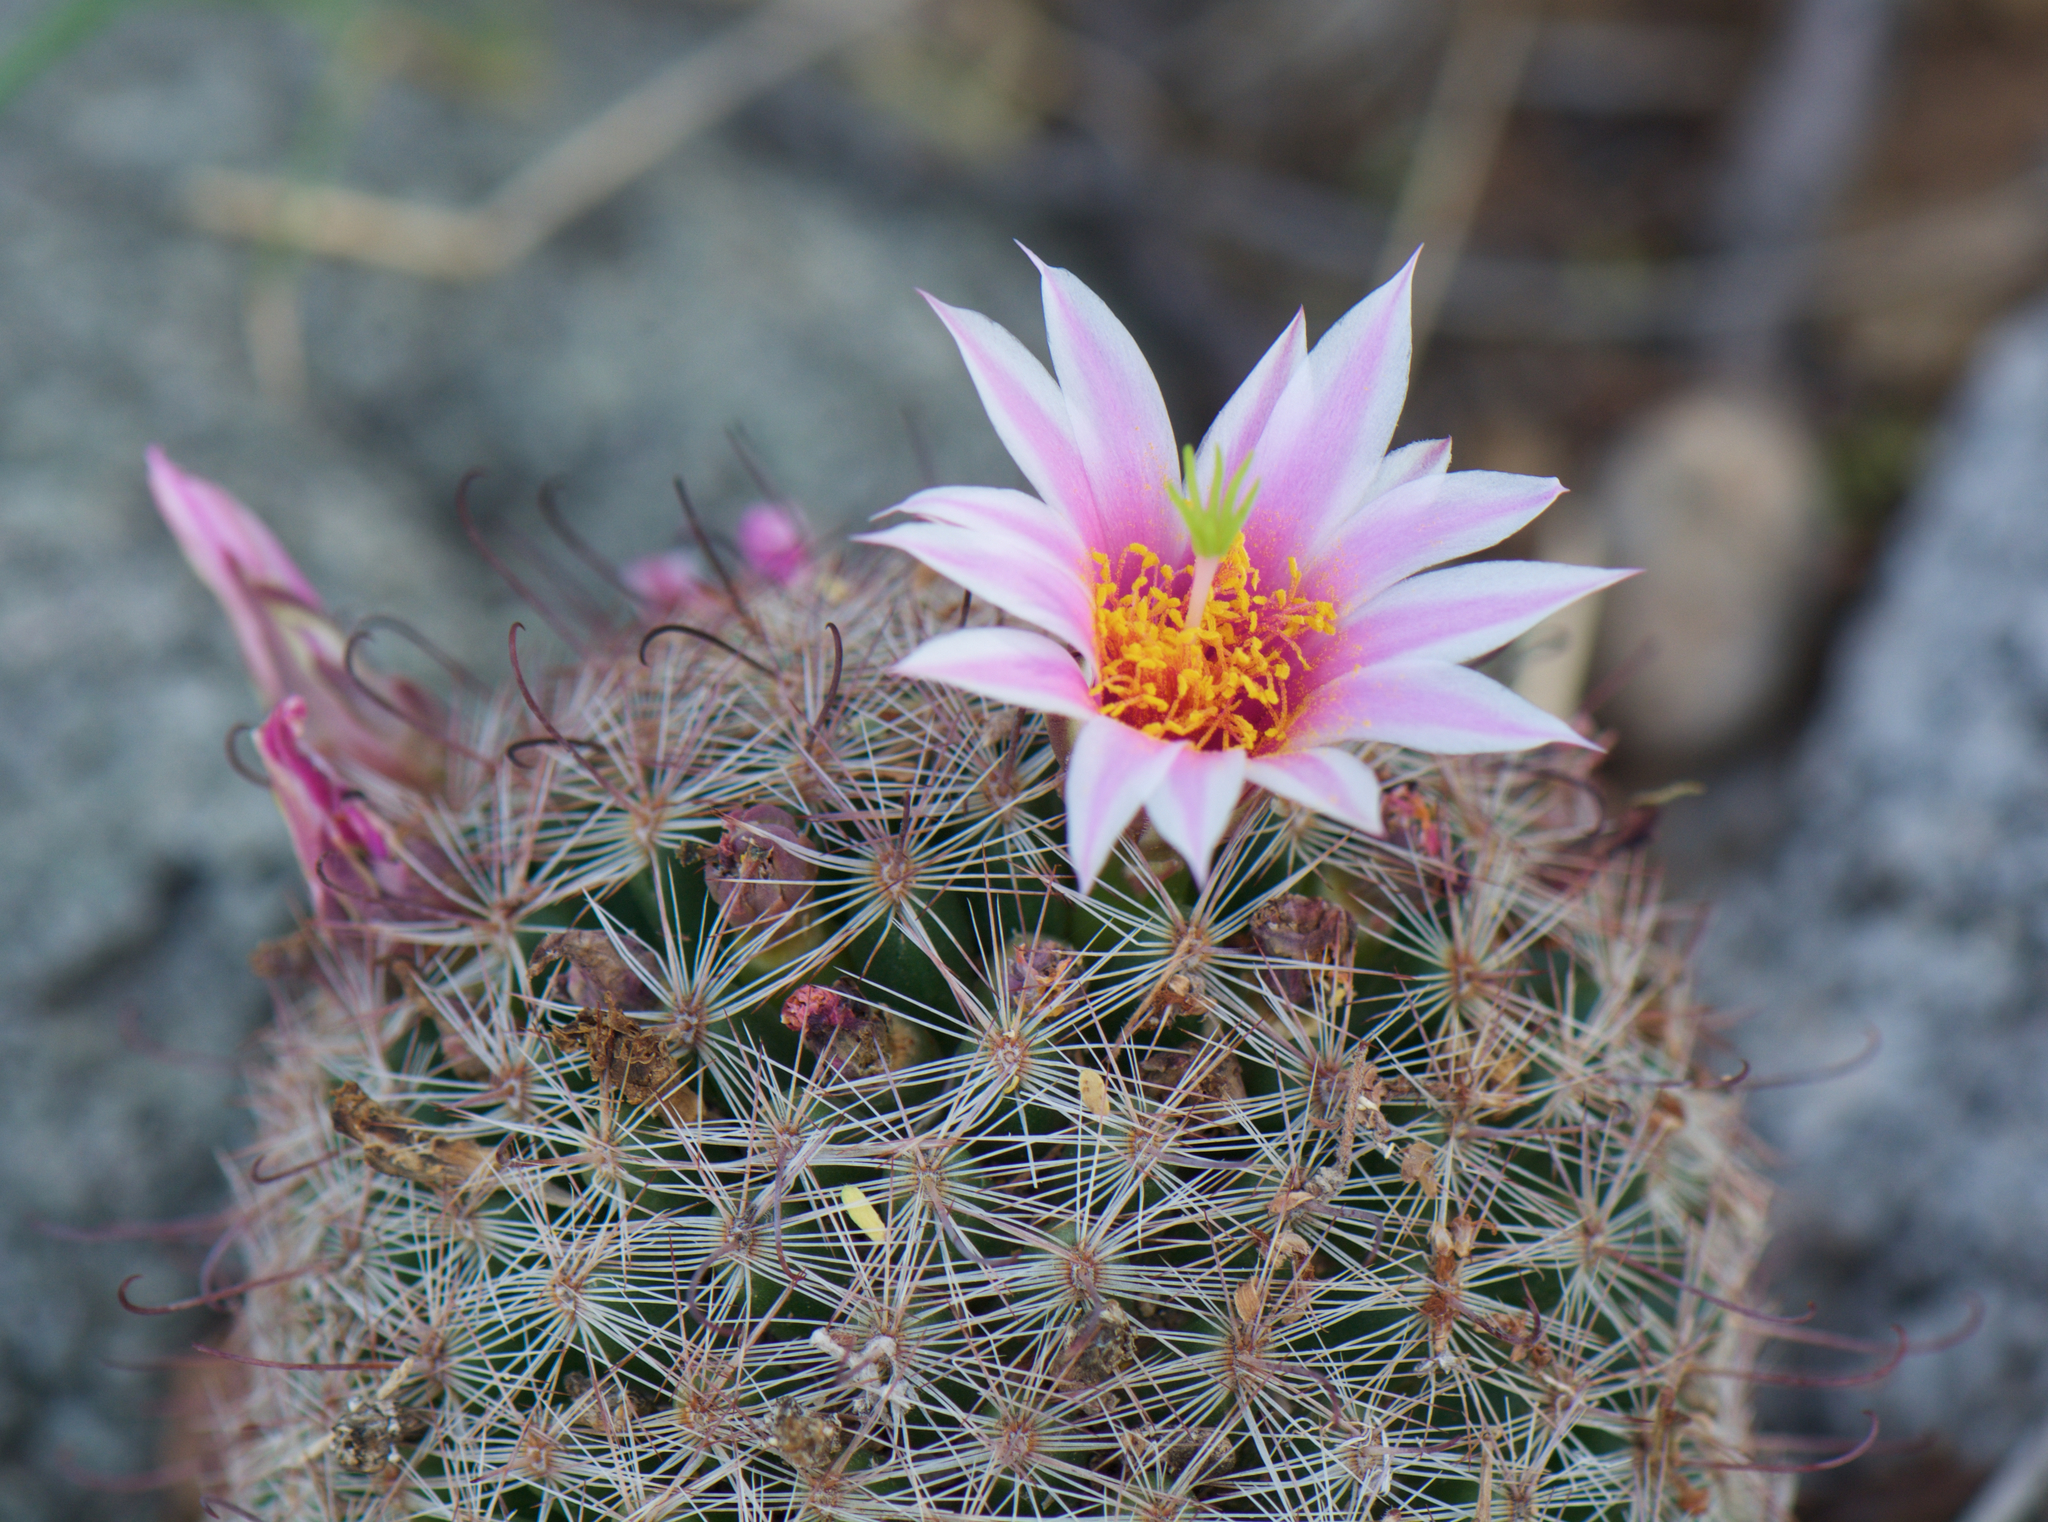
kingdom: Plantae
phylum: Tracheophyta
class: Magnoliopsida
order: Caryophyllales
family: Cactaceae
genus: Cochemiea
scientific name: Cochemiea grahamii
